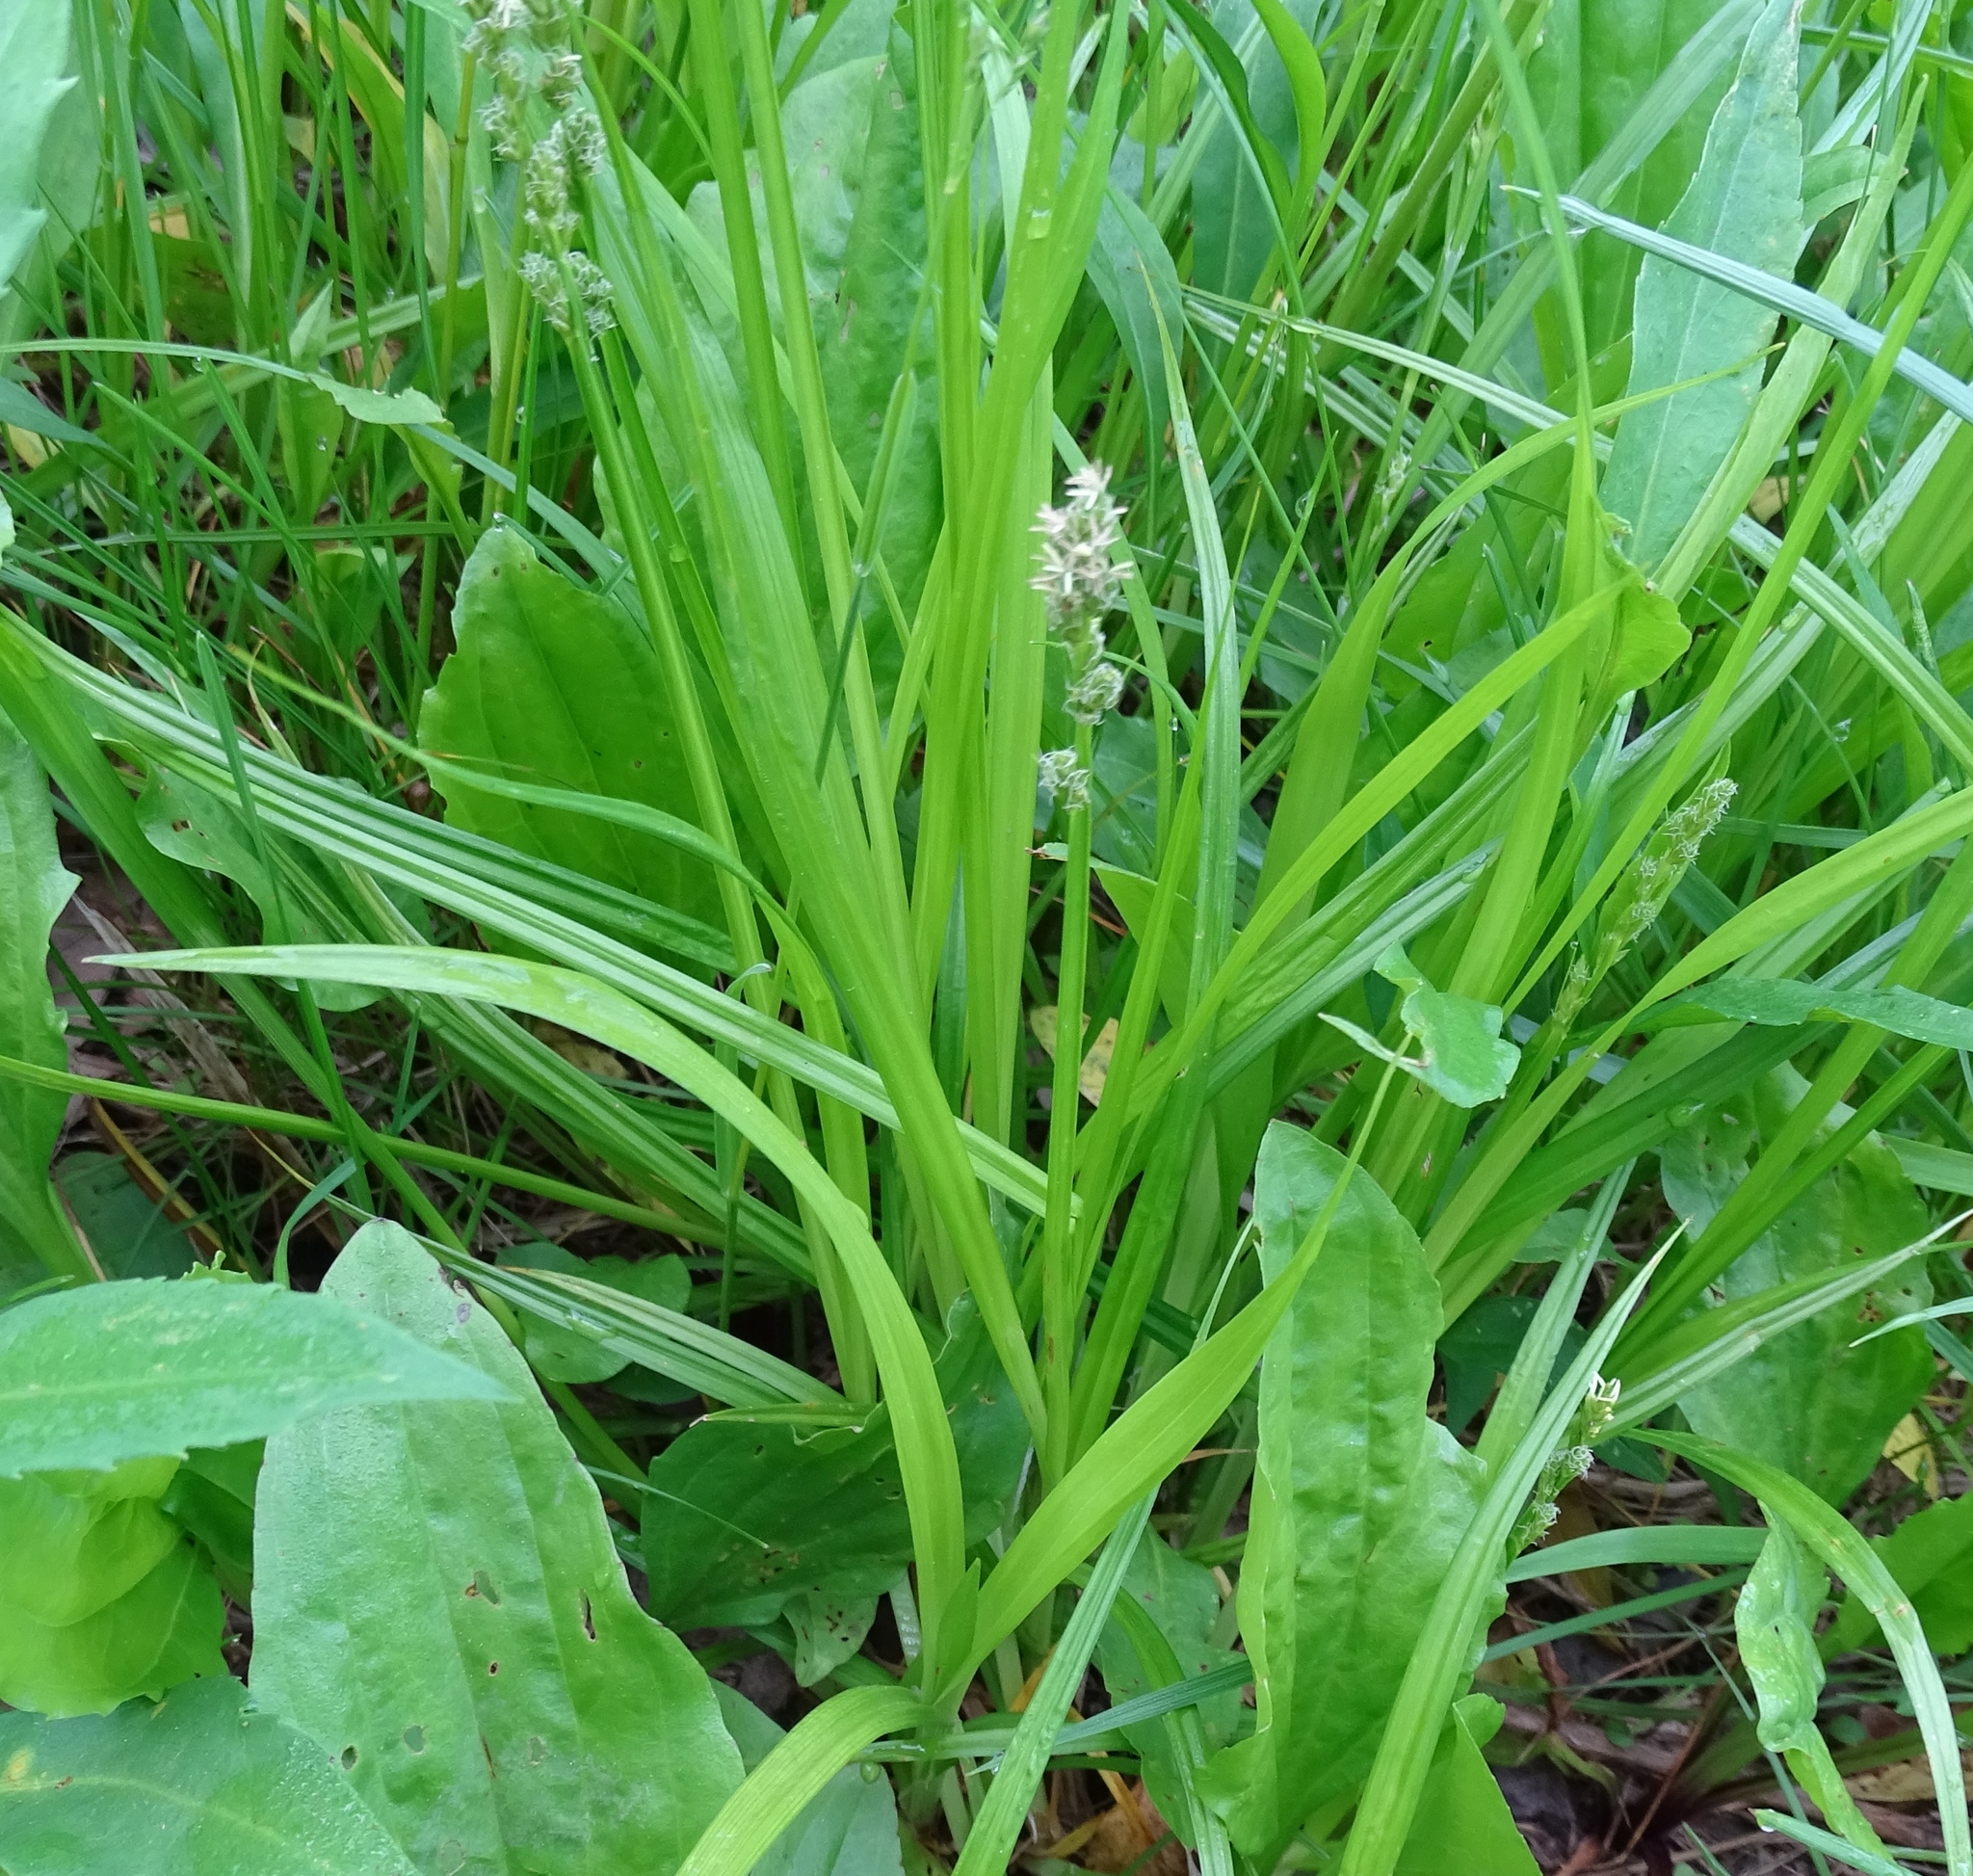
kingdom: Plantae
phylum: Tracheophyta
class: Liliopsida
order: Poales
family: Cyperaceae
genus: Carex
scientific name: Carex stipata
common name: Awl-fruited sedge
